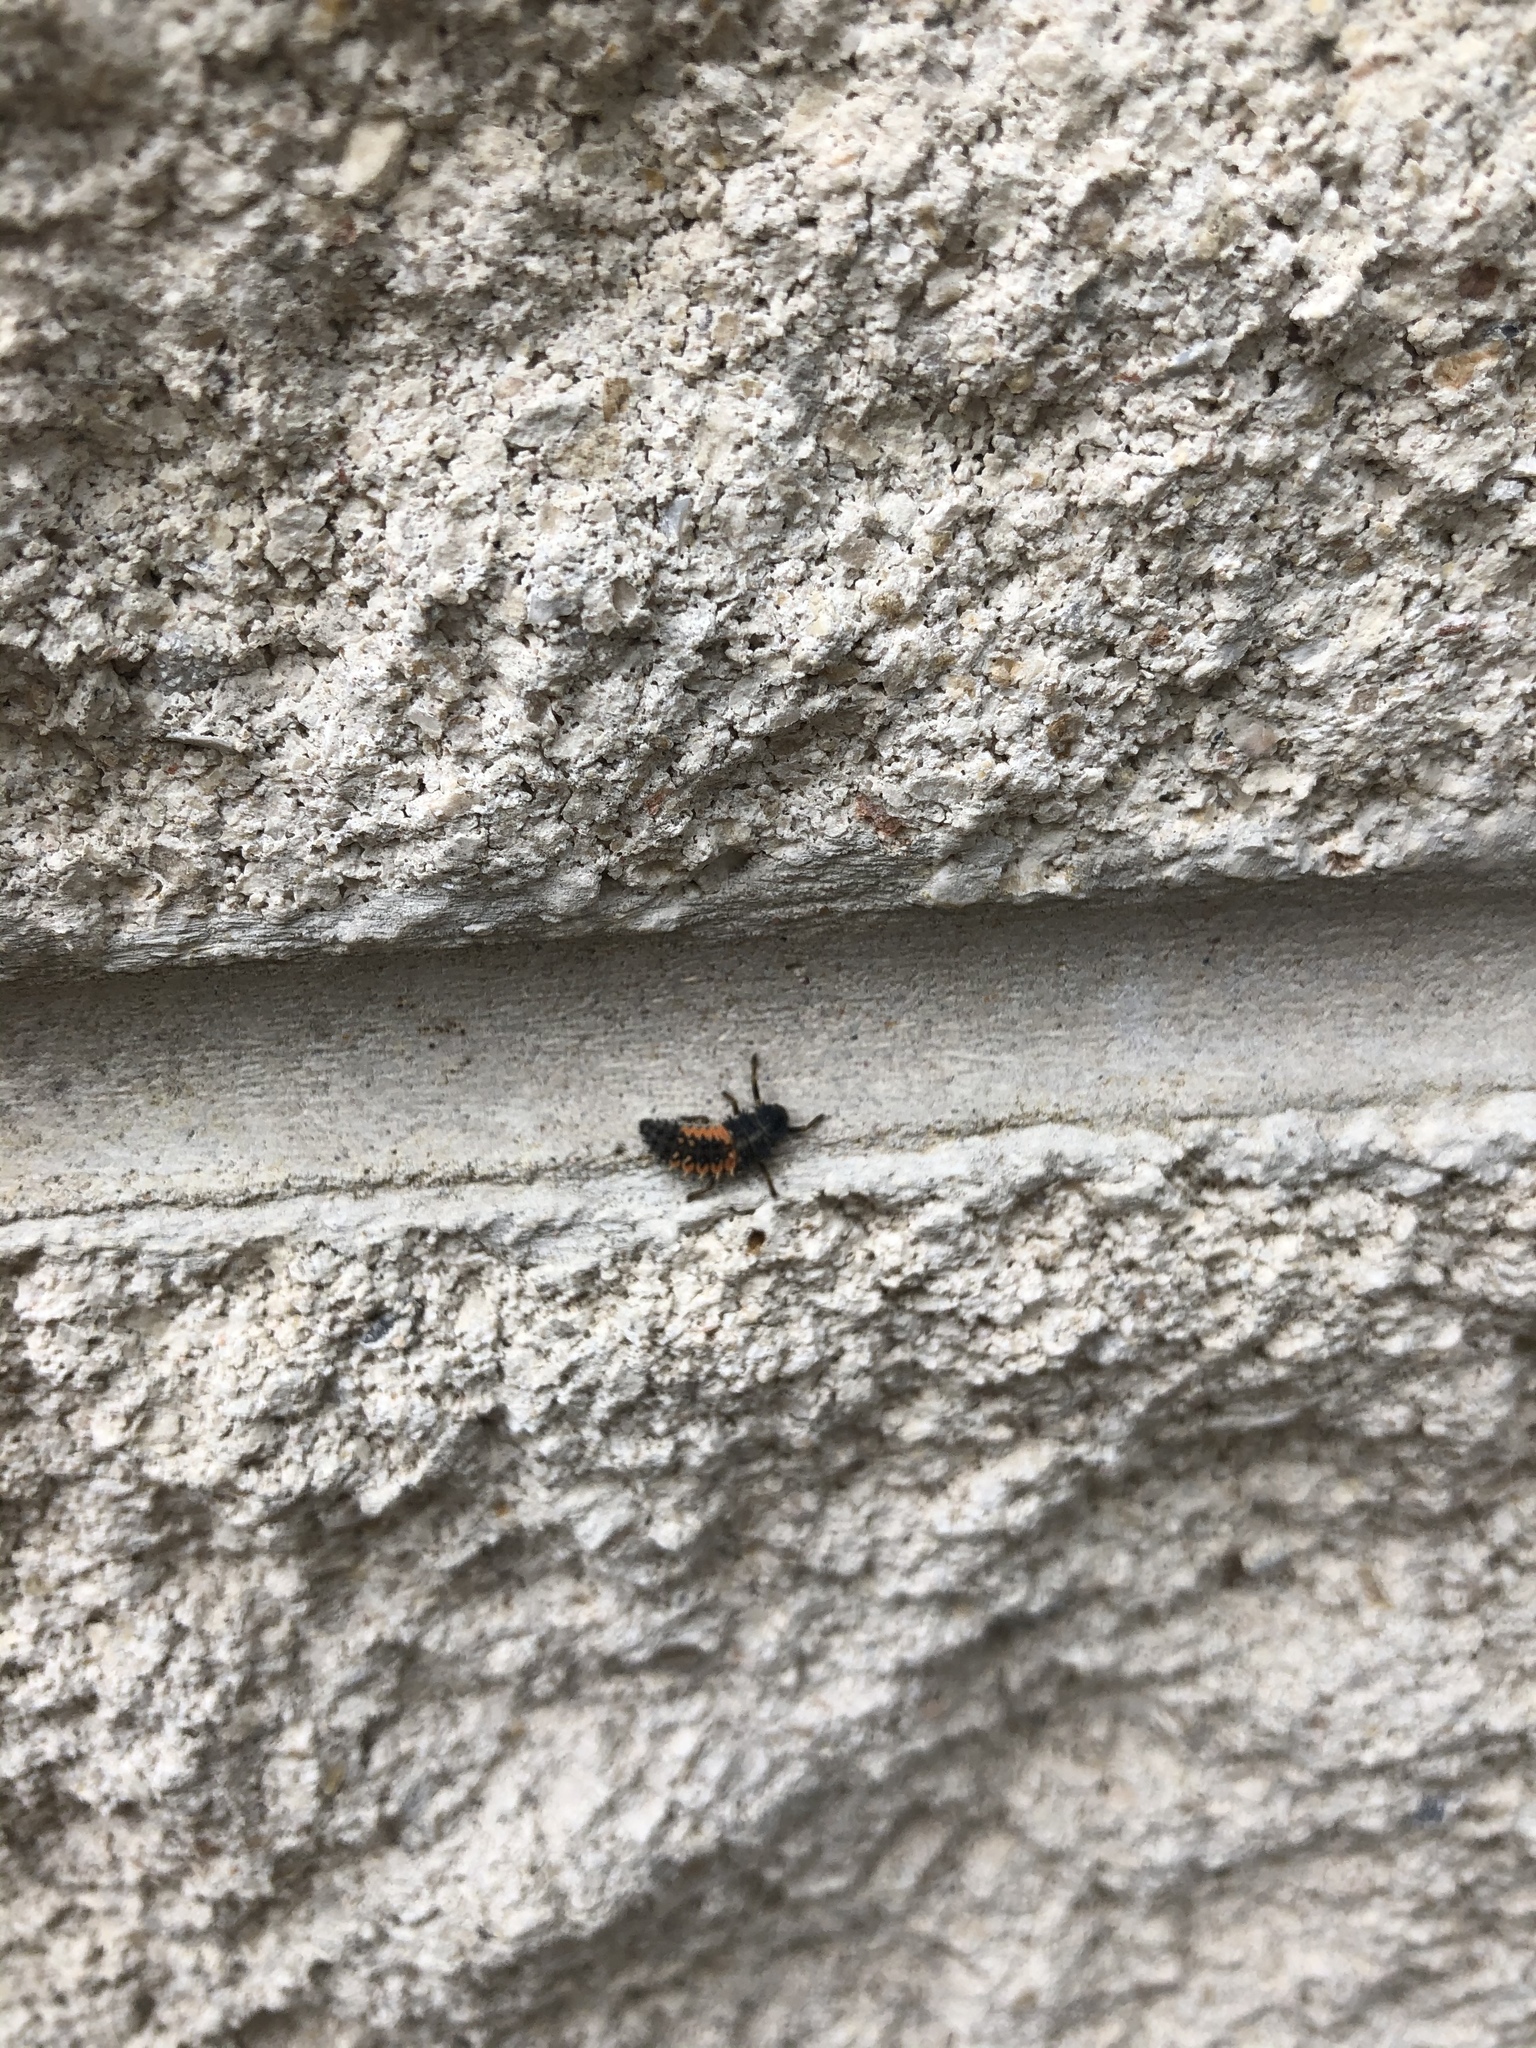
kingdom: Animalia
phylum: Arthropoda
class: Insecta
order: Coleoptera
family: Coccinellidae
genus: Harmonia
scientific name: Harmonia axyridis
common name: Harlequin ladybird
